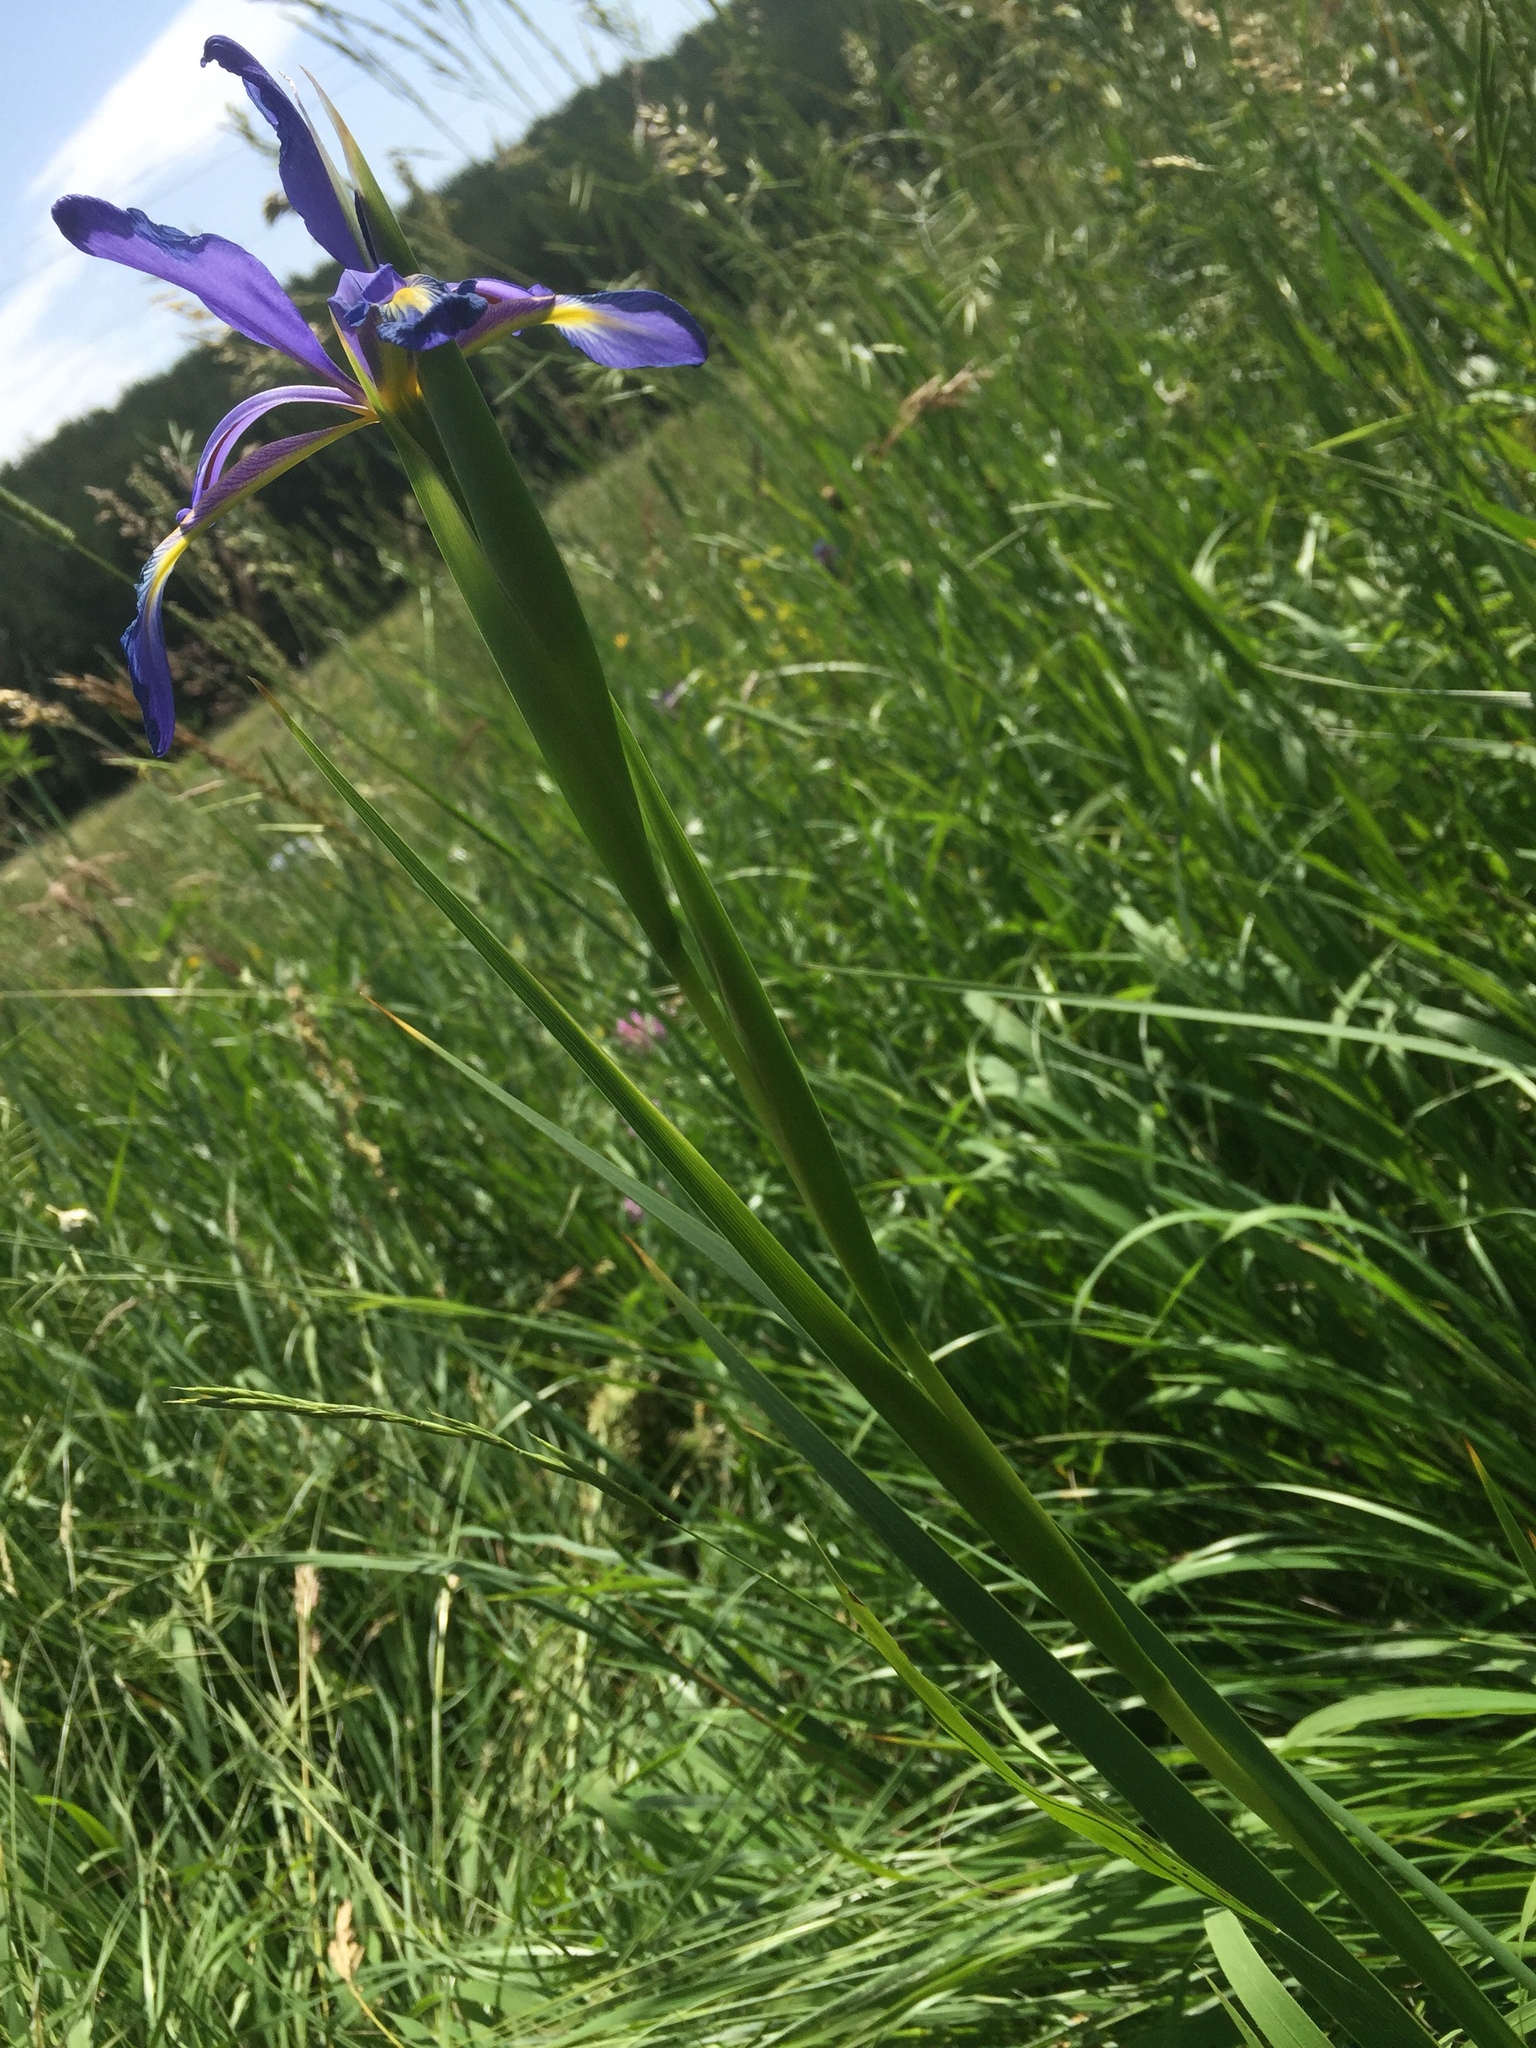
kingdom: Plantae
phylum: Tracheophyta
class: Liliopsida
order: Asparagales
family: Iridaceae
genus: Iris
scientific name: Iris spuria
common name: Blue iris
